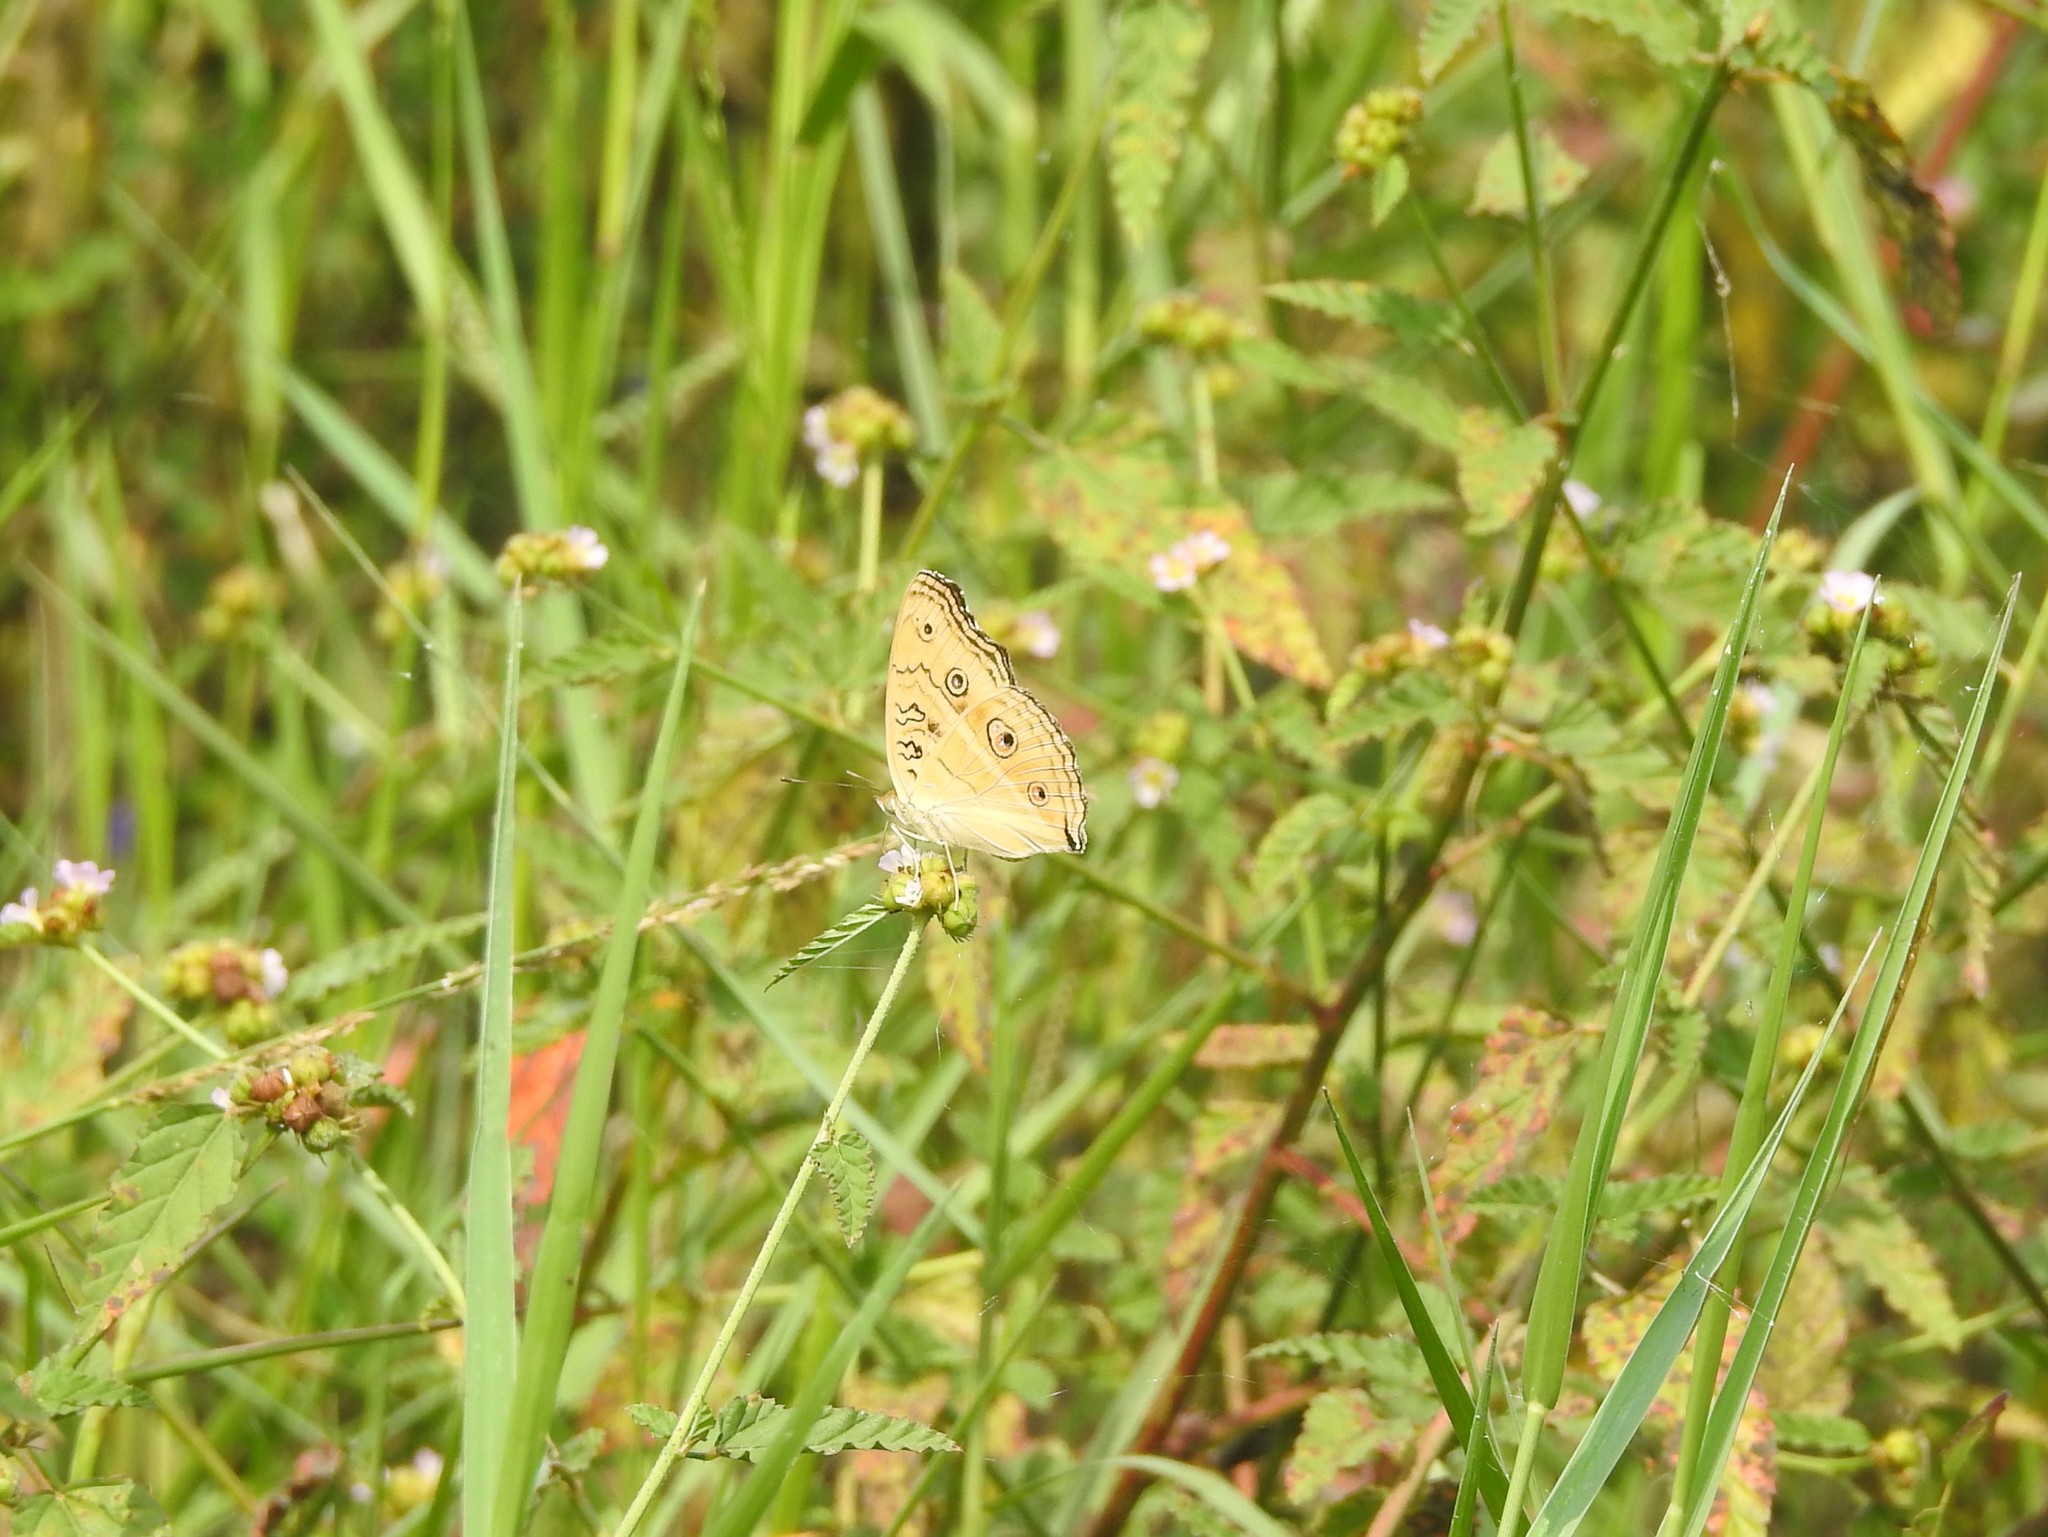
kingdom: Animalia
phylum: Arthropoda
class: Insecta
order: Lepidoptera
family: Nymphalidae
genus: Junonia
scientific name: Junonia almana
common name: Peacock pansy
